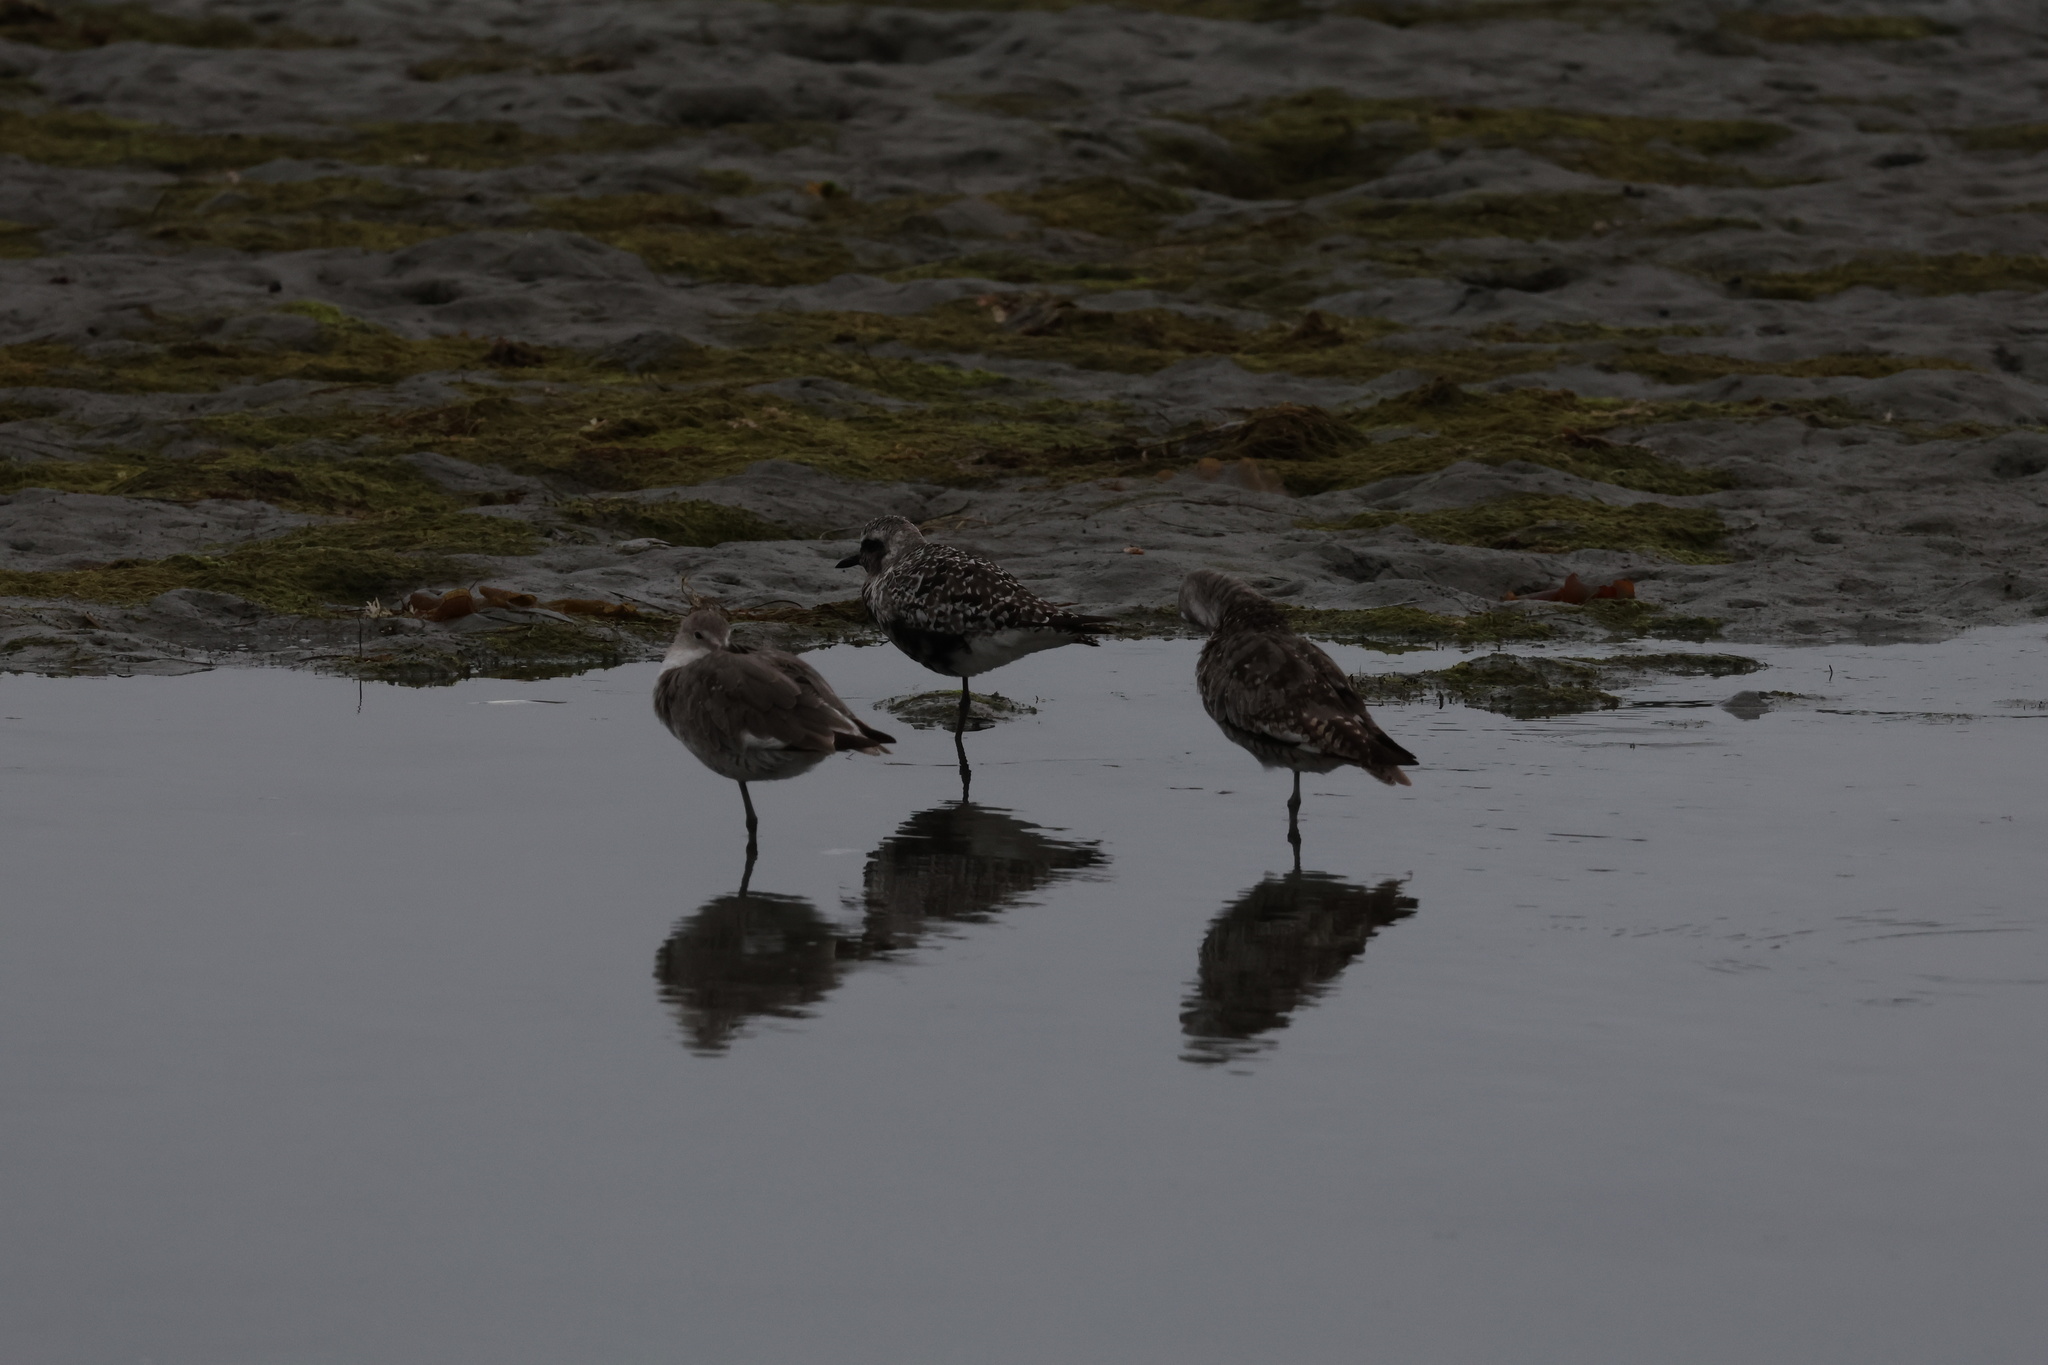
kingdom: Animalia
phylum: Chordata
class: Aves
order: Charadriiformes
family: Charadriidae
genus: Pluvialis
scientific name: Pluvialis squatarola
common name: Grey plover
